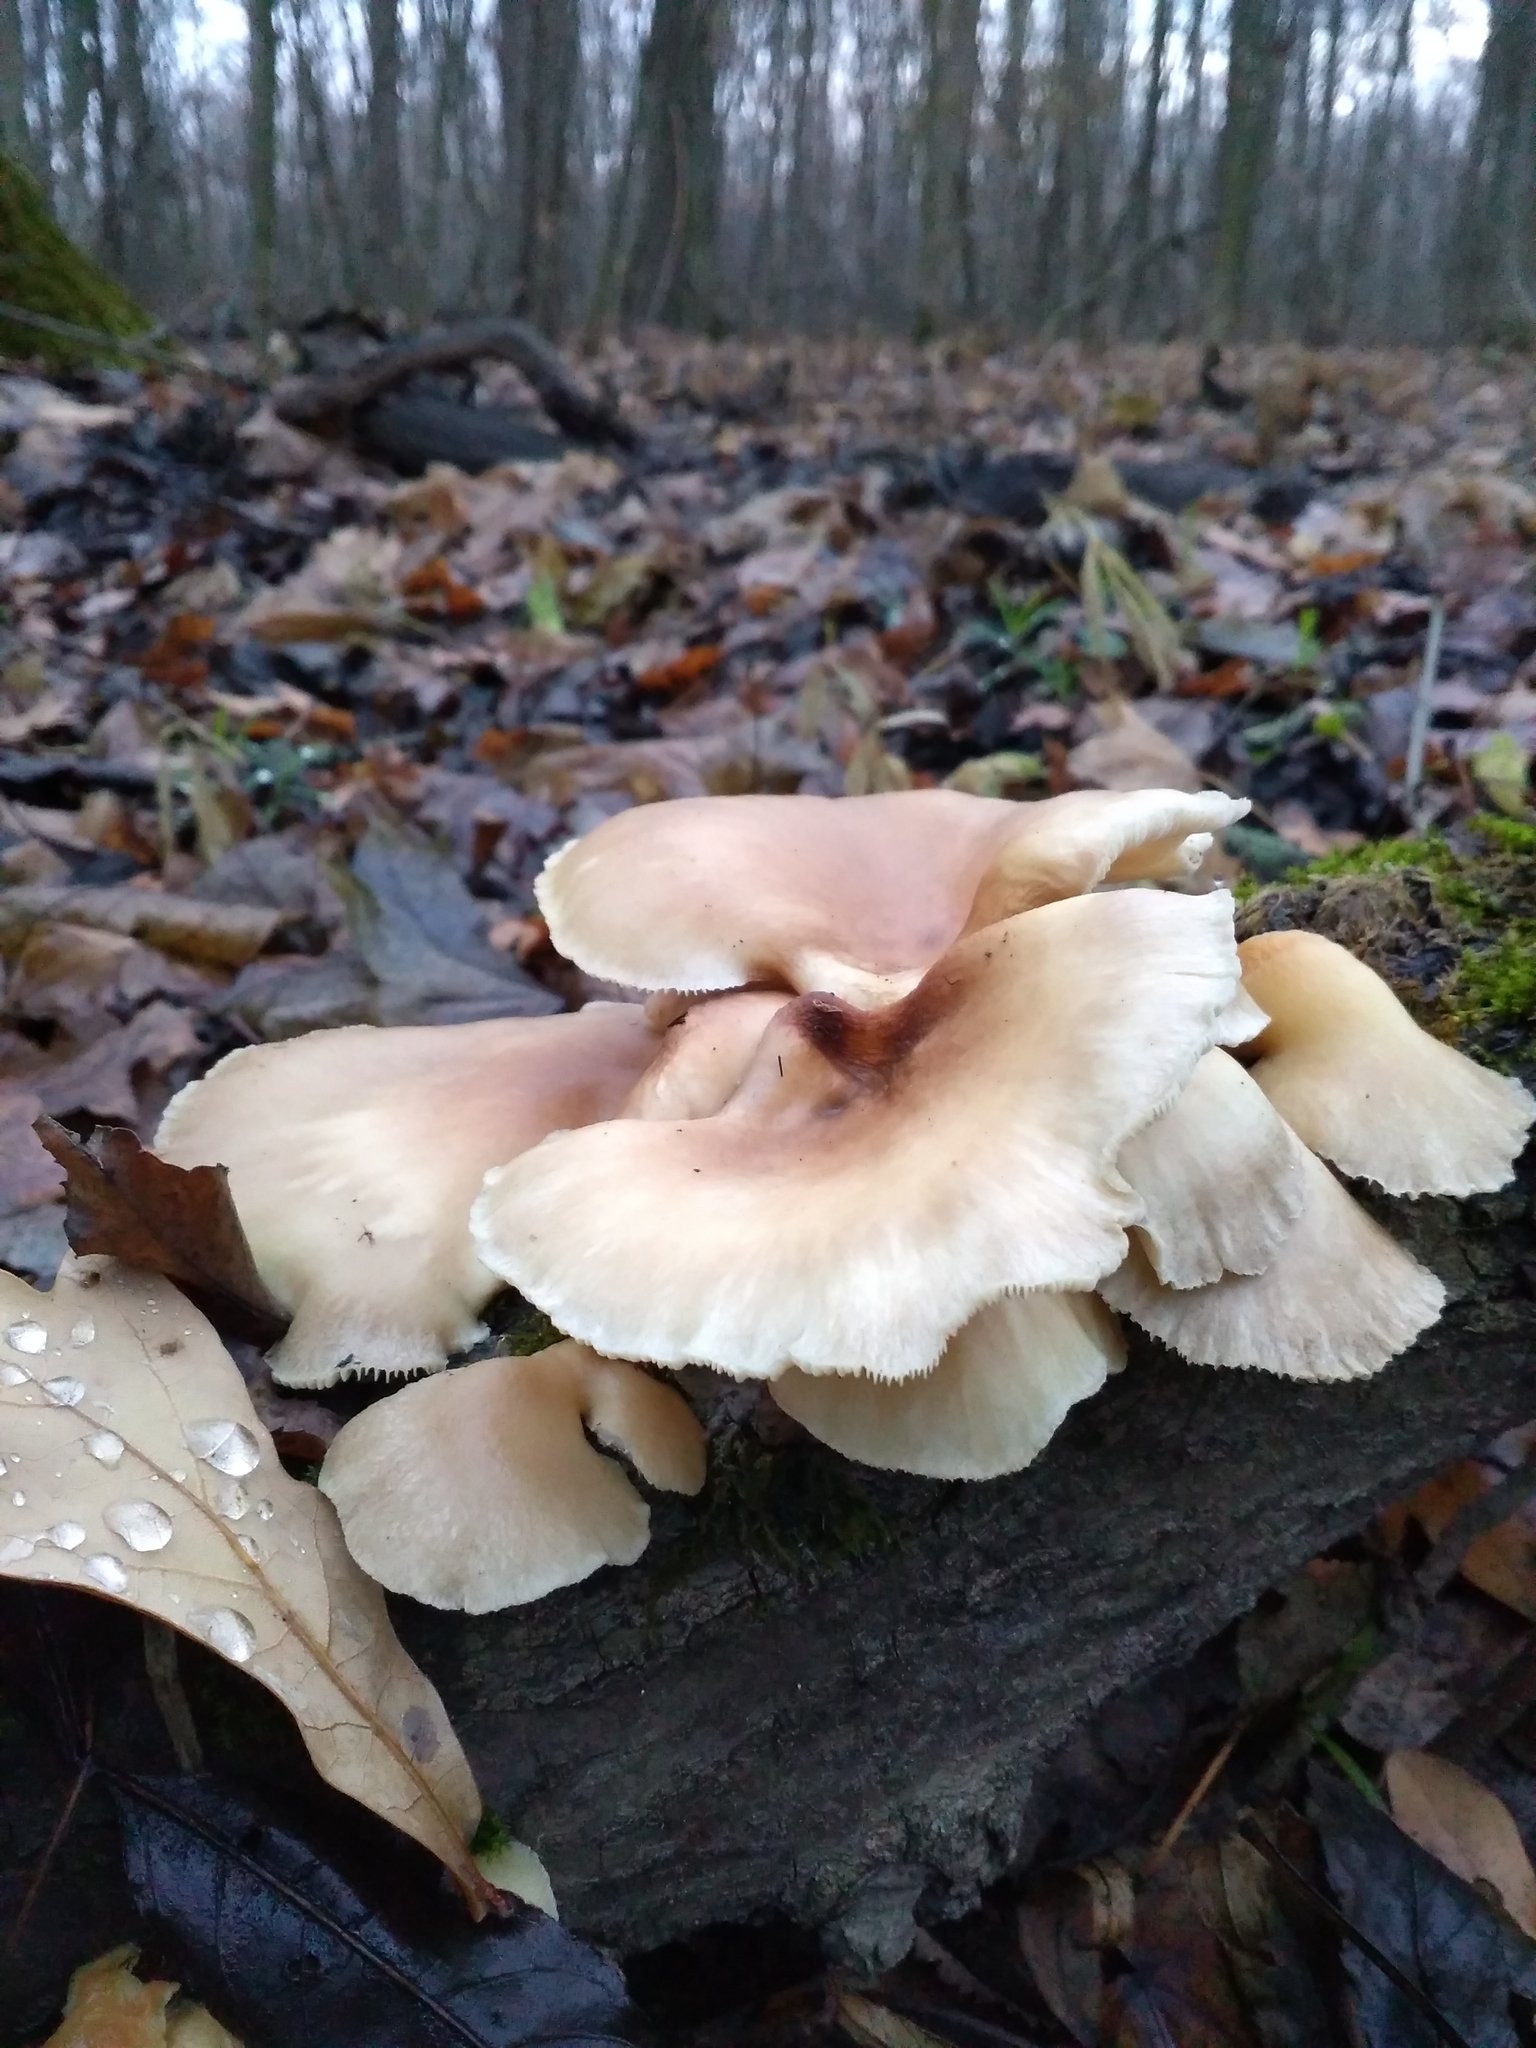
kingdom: Fungi
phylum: Basidiomycota
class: Agaricomycetes
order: Agaricales
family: Pleurotaceae
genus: Pleurotus
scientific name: Pleurotus pulmonarius
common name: Pale oyster
